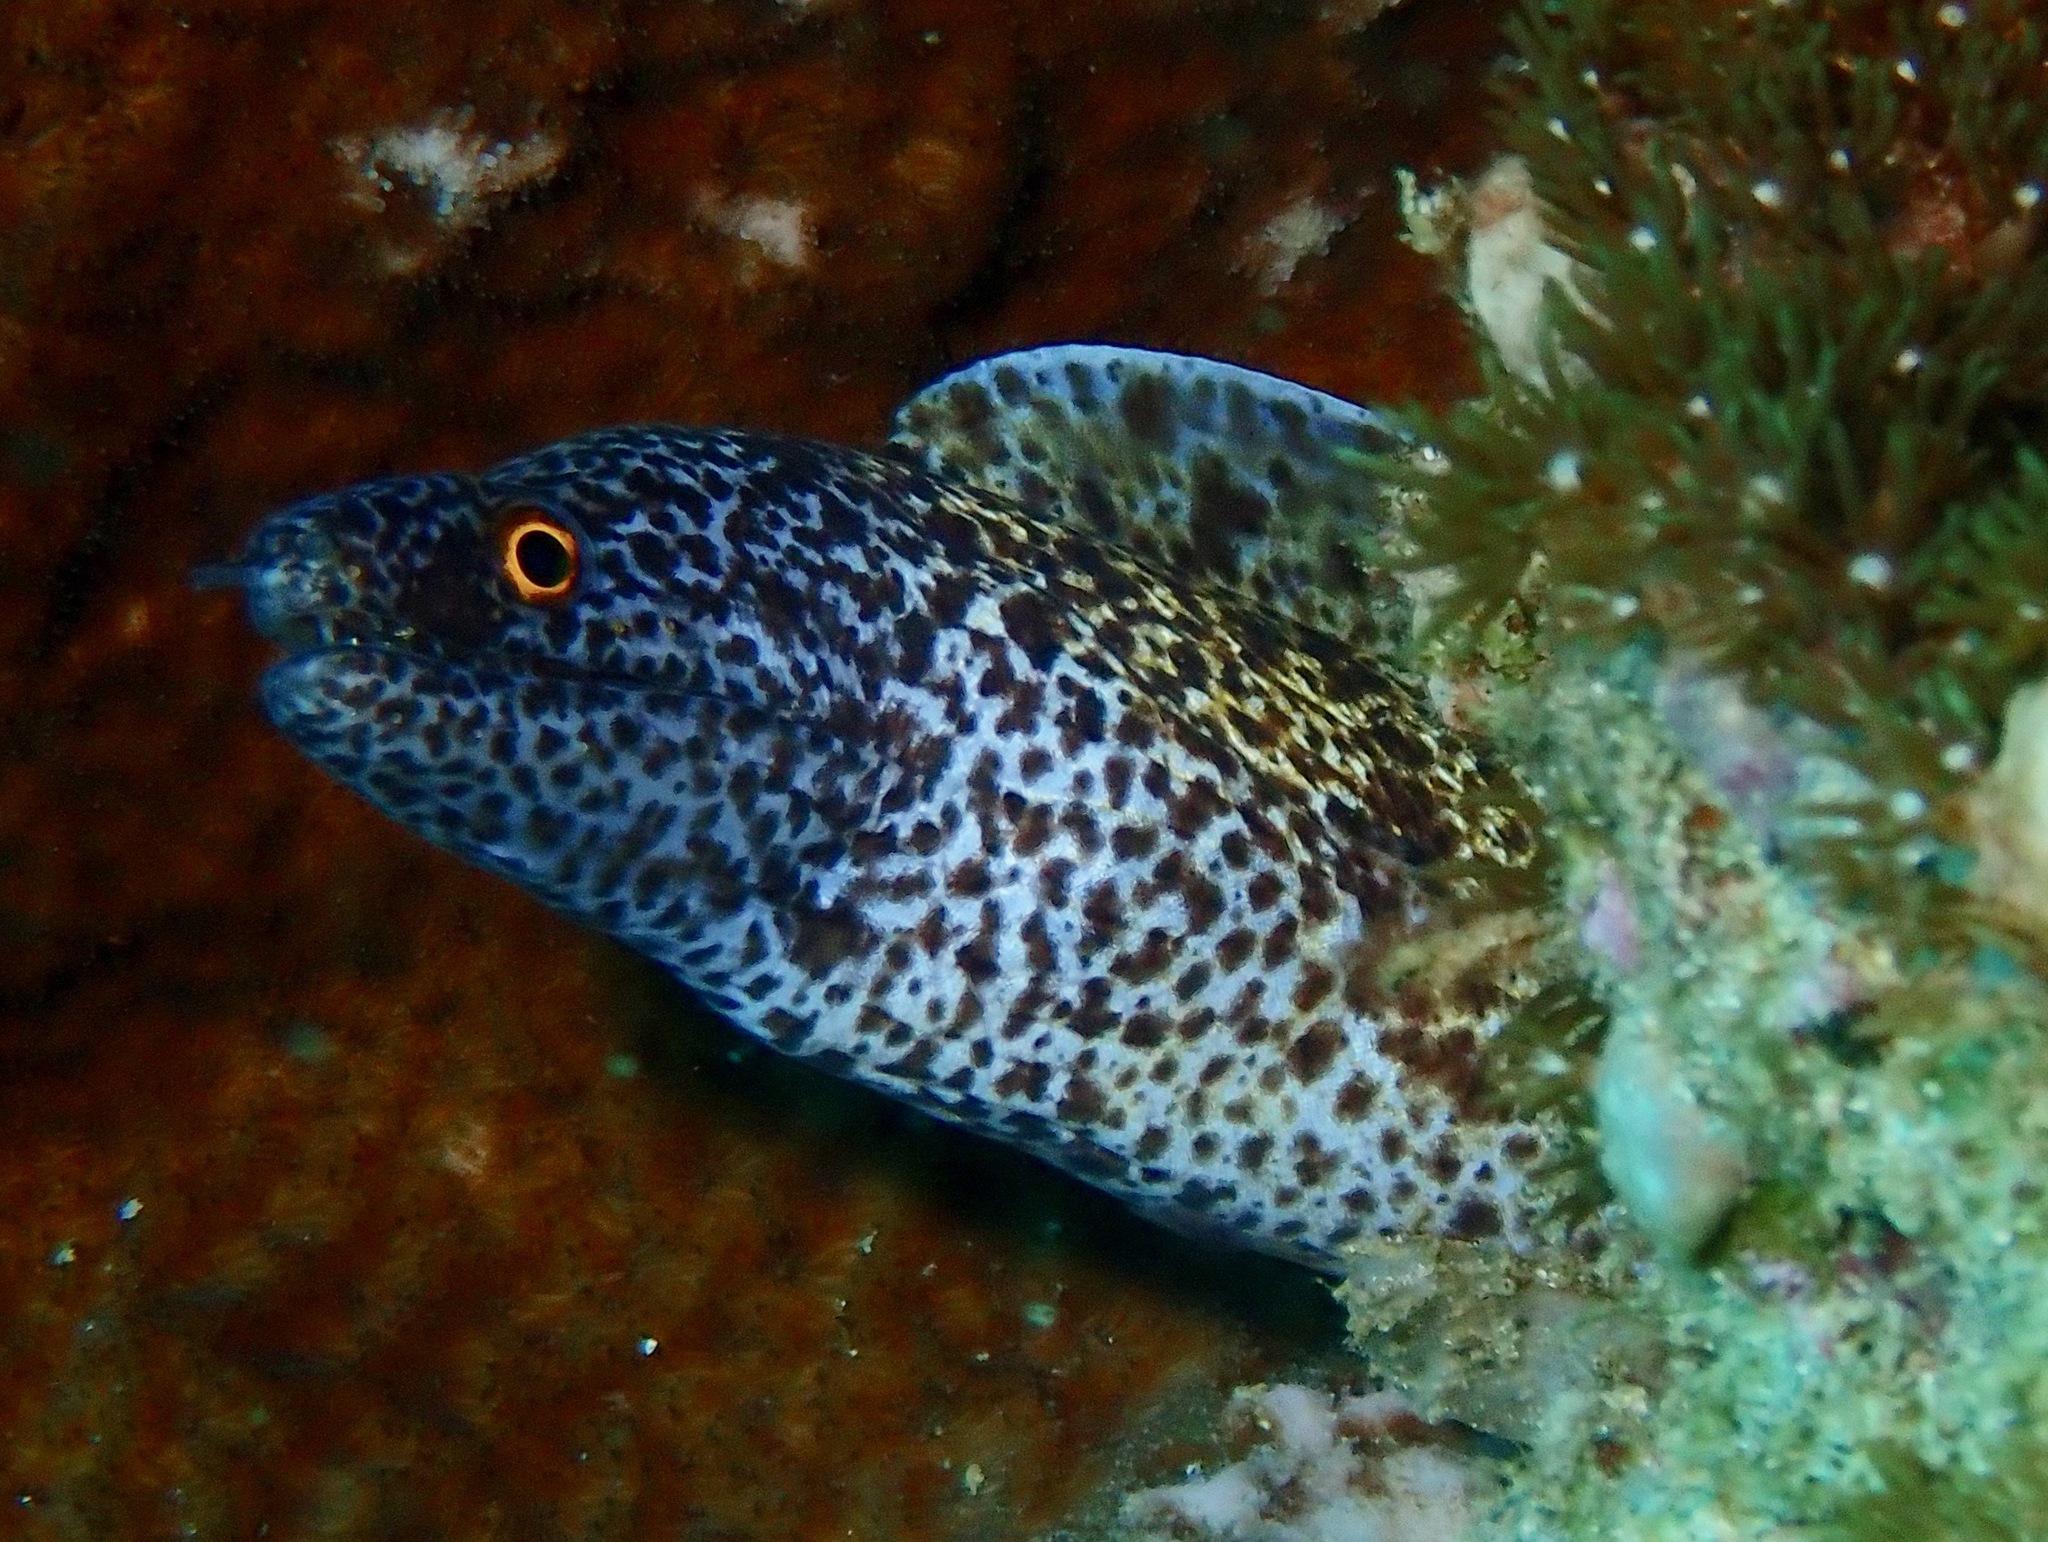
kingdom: Animalia
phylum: Chordata
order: Anguilliformes
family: Muraenidae
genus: Gymnothorax
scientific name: Gymnothorax annasona
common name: Lord howe island moray
